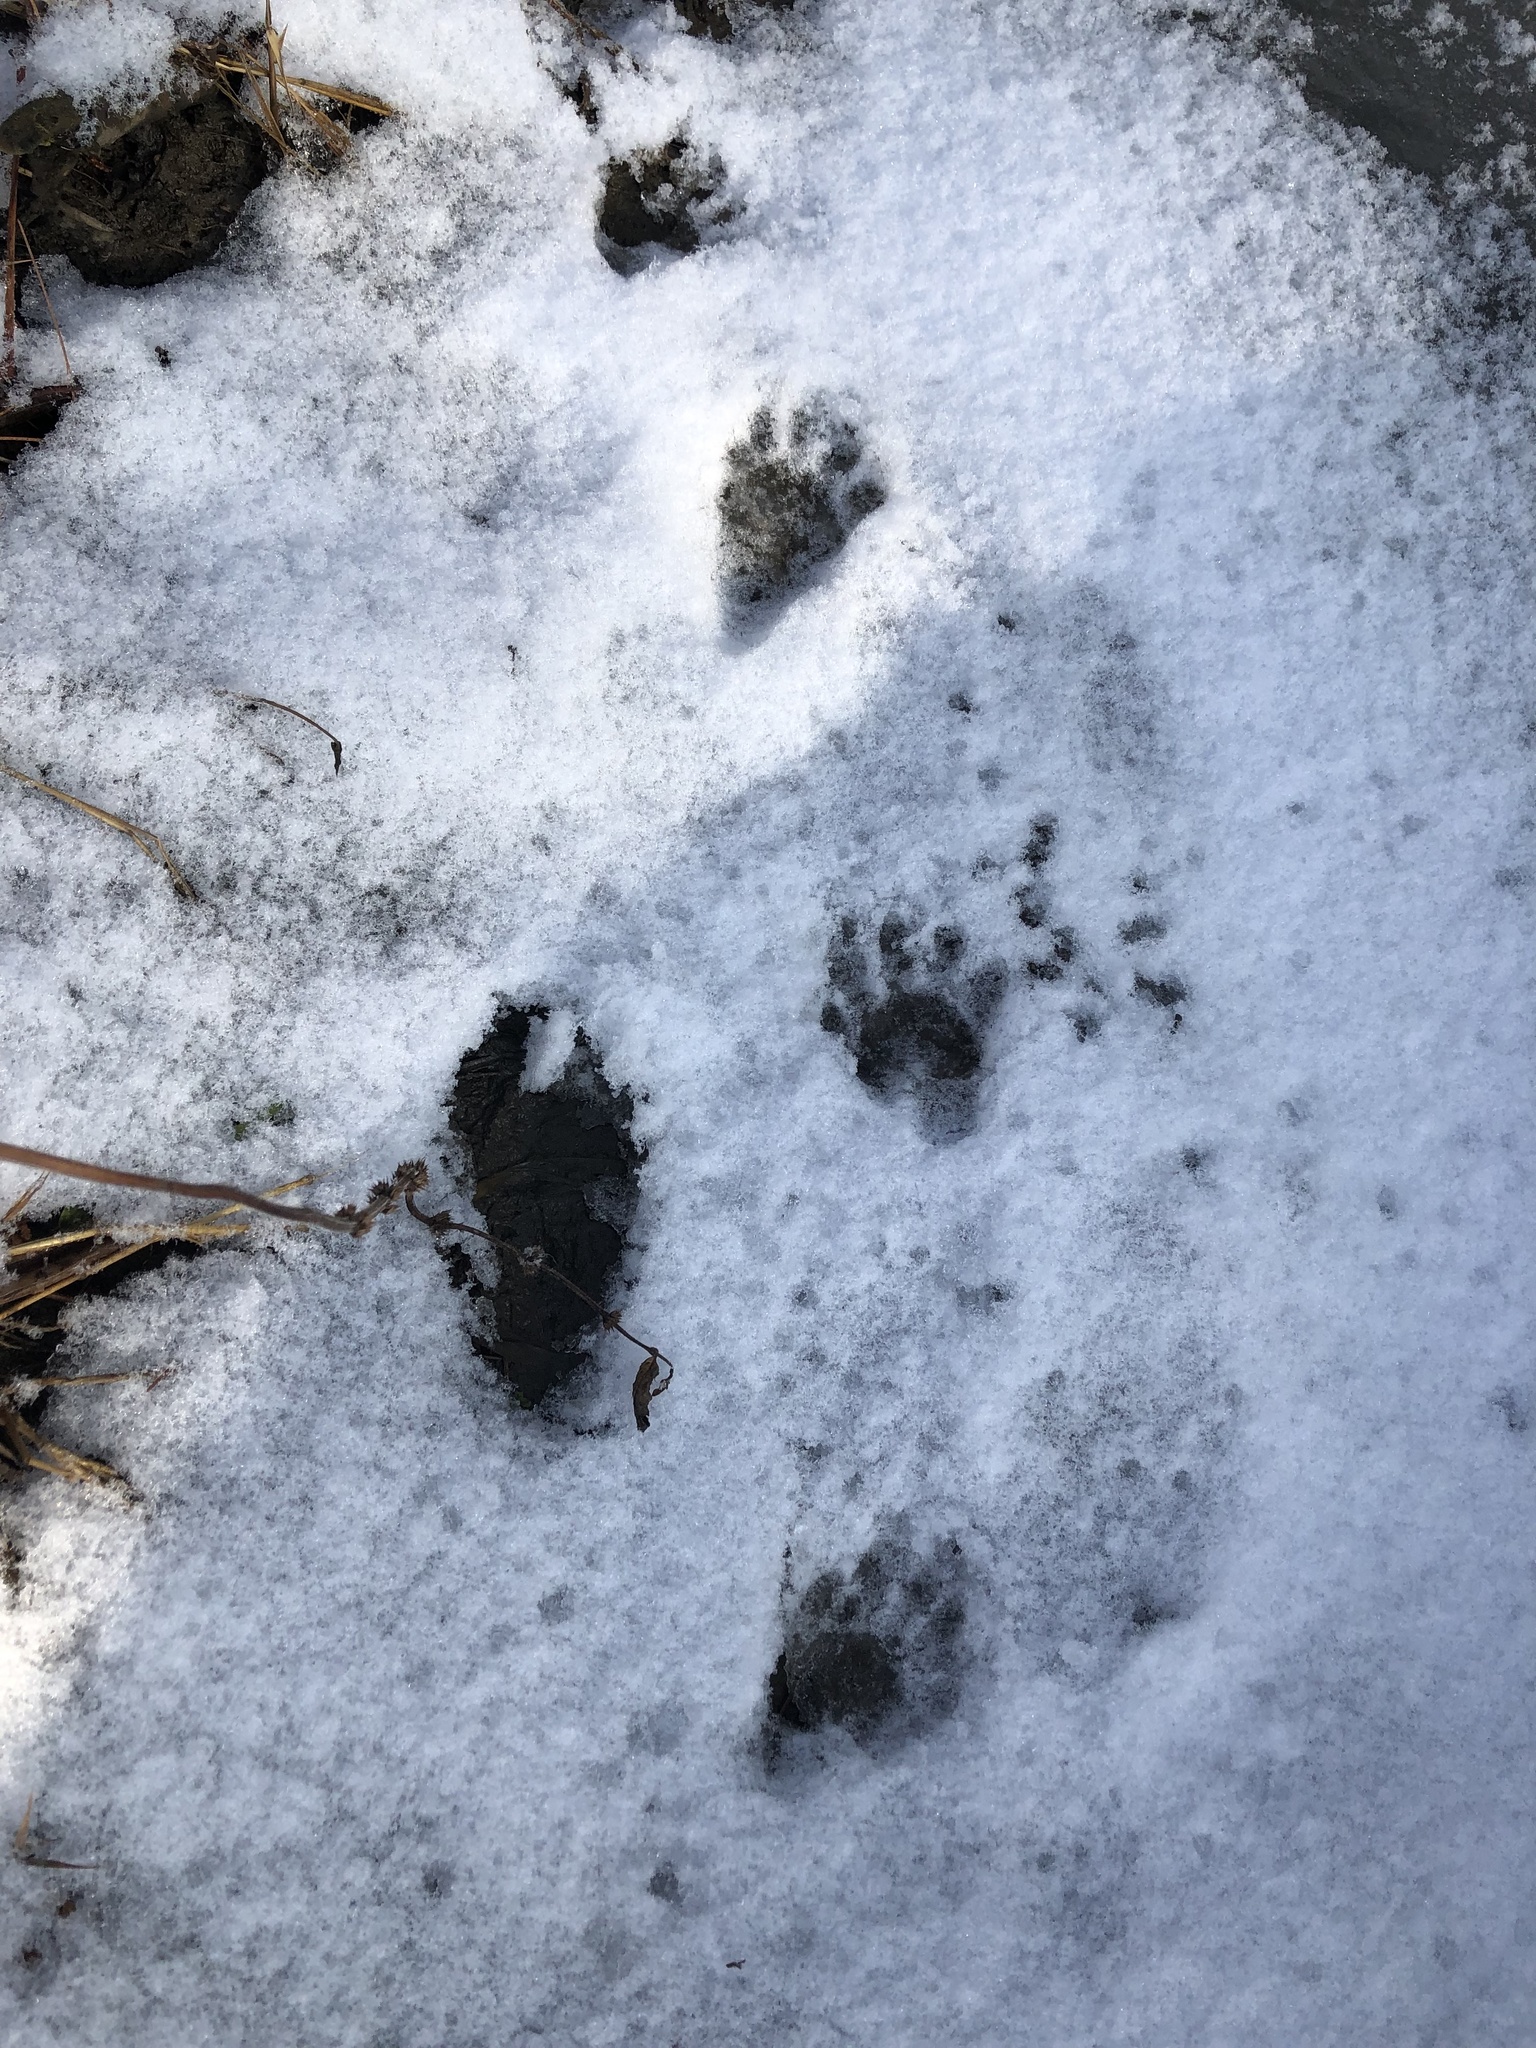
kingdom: Animalia
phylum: Chordata
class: Mammalia
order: Carnivora
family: Procyonidae
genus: Procyon
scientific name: Procyon lotor
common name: Raccoon
